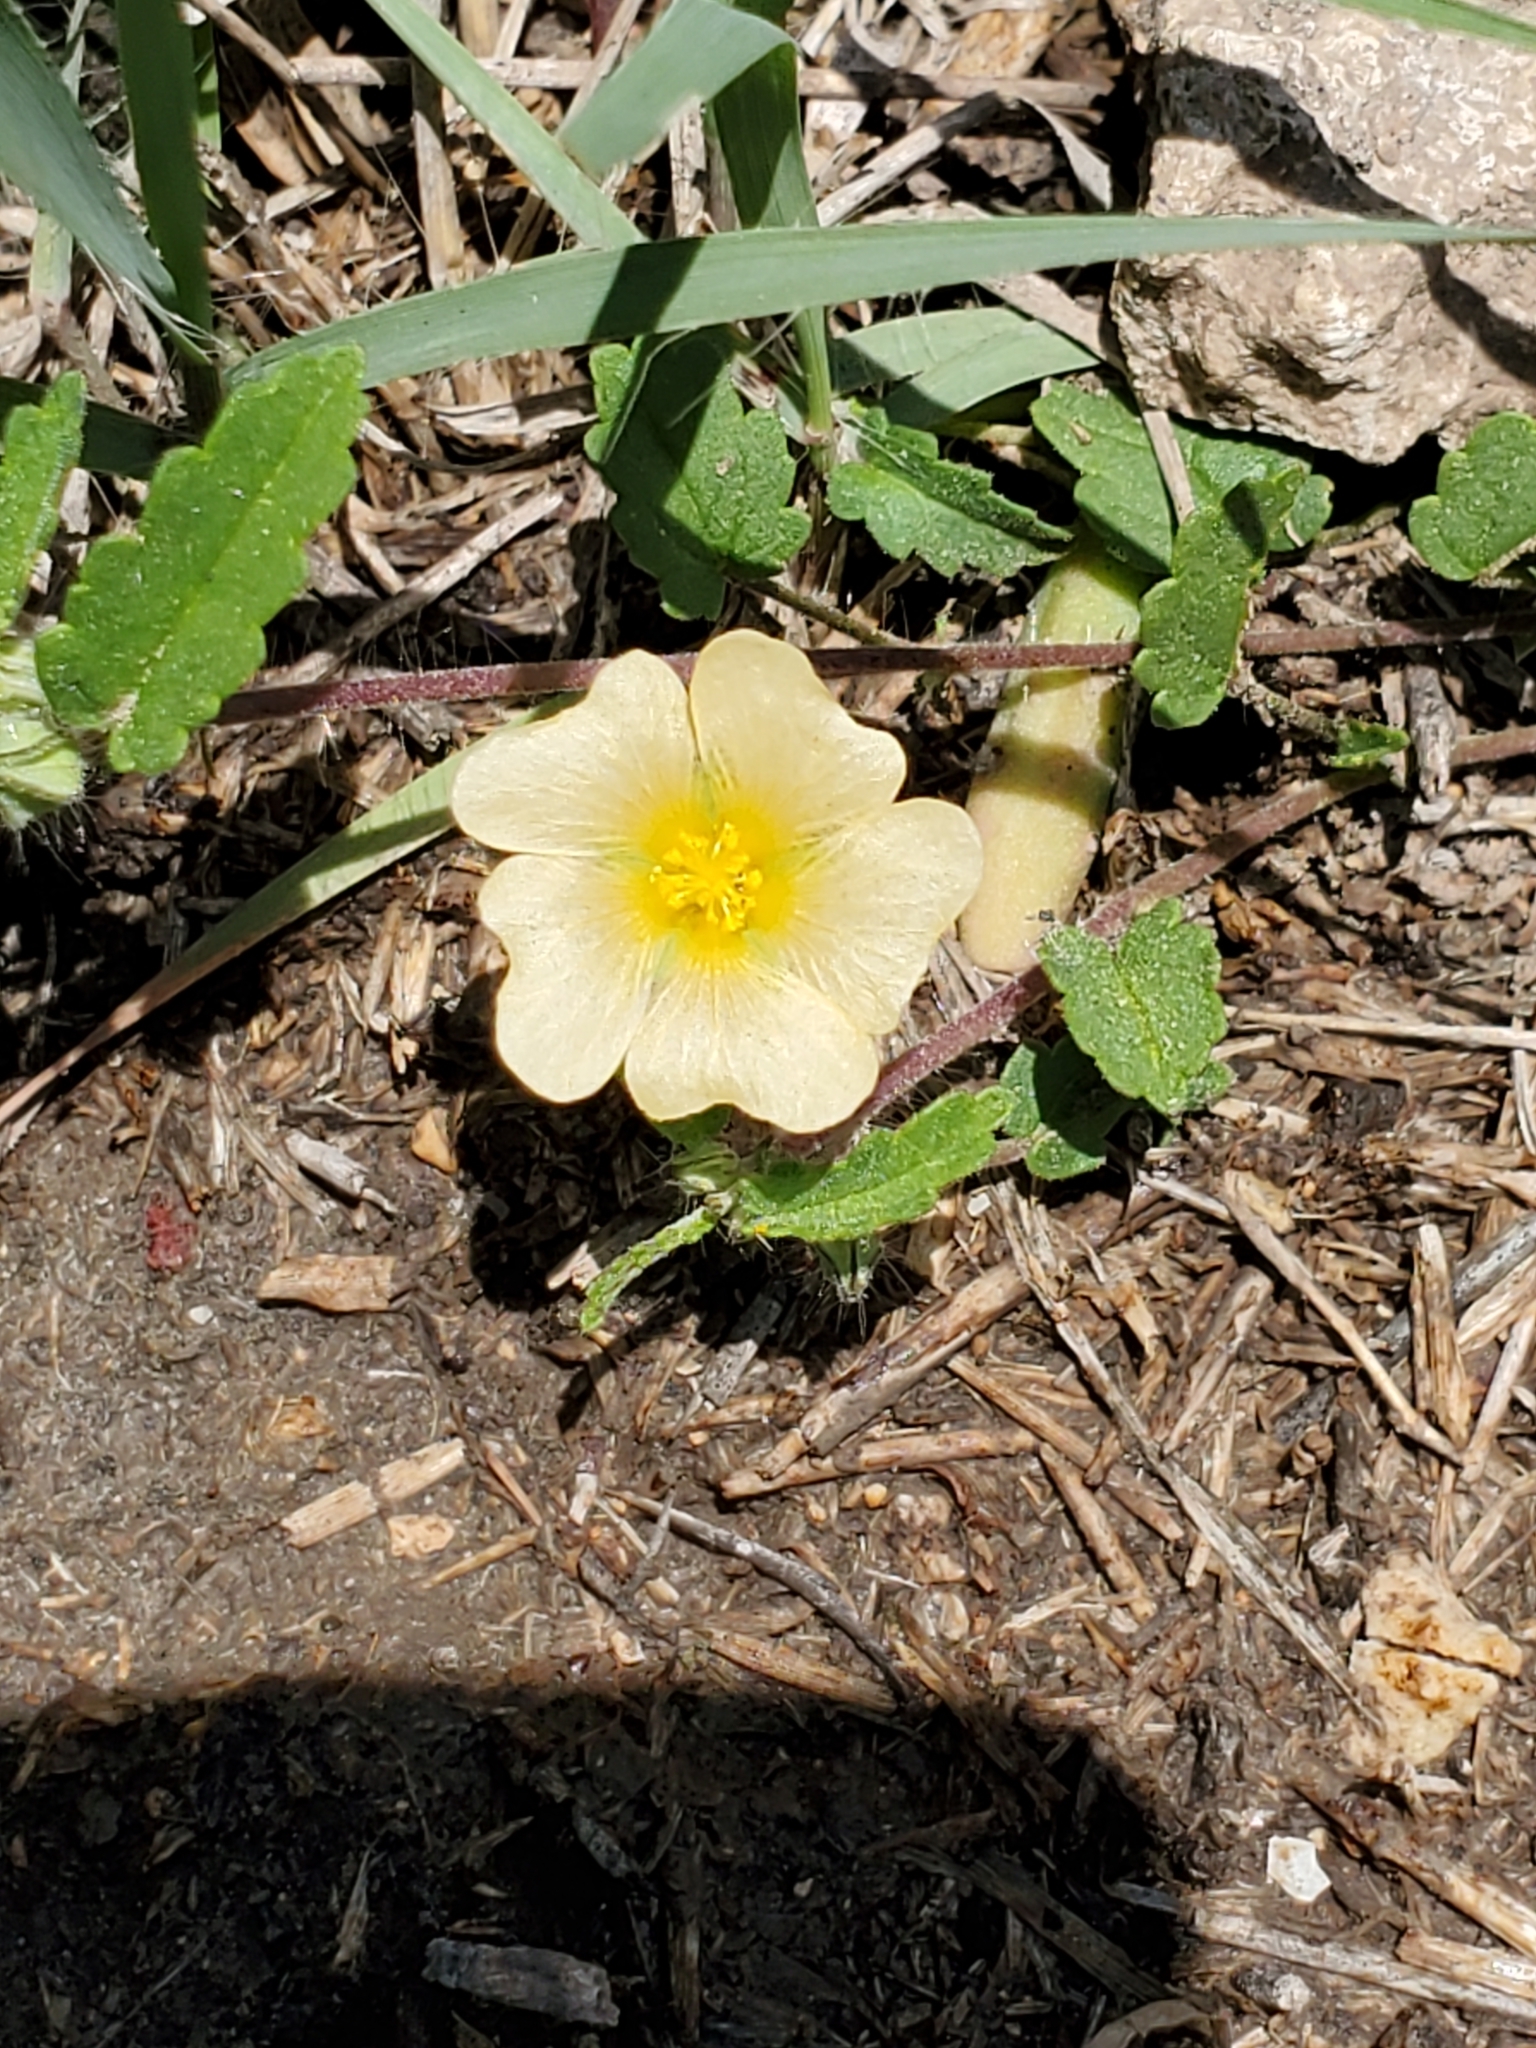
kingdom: Plantae
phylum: Tracheophyta
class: Magnoliopsida
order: Malvales
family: Malvaceae
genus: Sida
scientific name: Sida abutilifolia
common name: Spreading fanpetals
